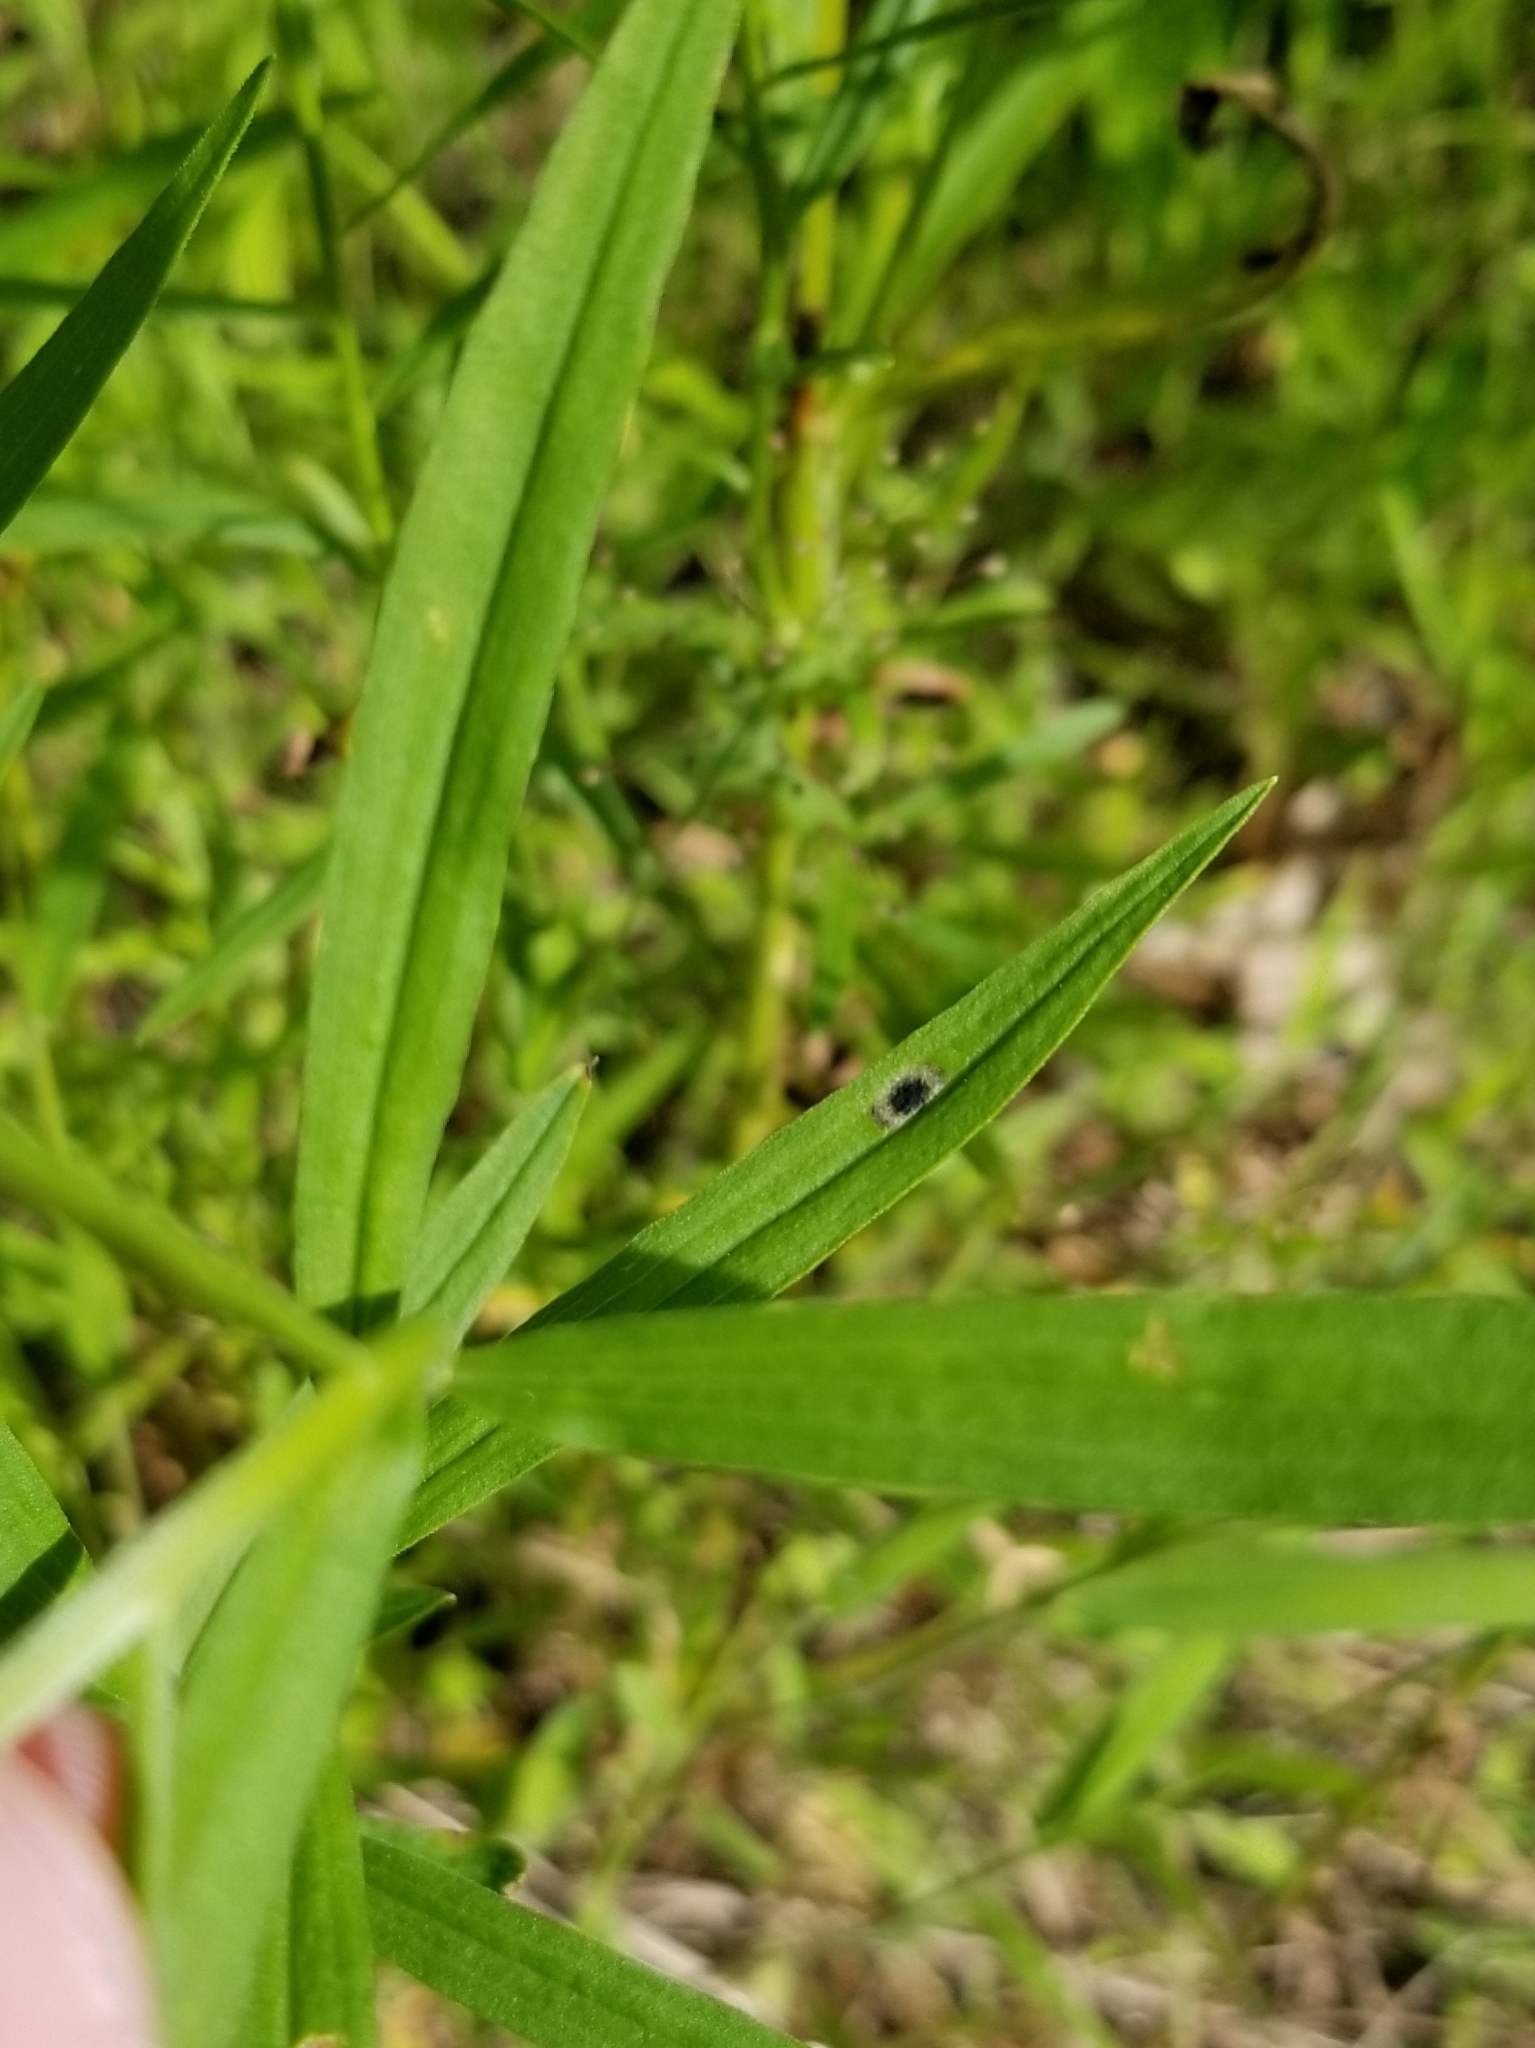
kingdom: Animalia
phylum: Arthropoda
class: Insecta
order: Diptera
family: Cecidomyiidae
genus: Asteromyia
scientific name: Asteromyia euthamiae
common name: Euthamia leaf gall midge
